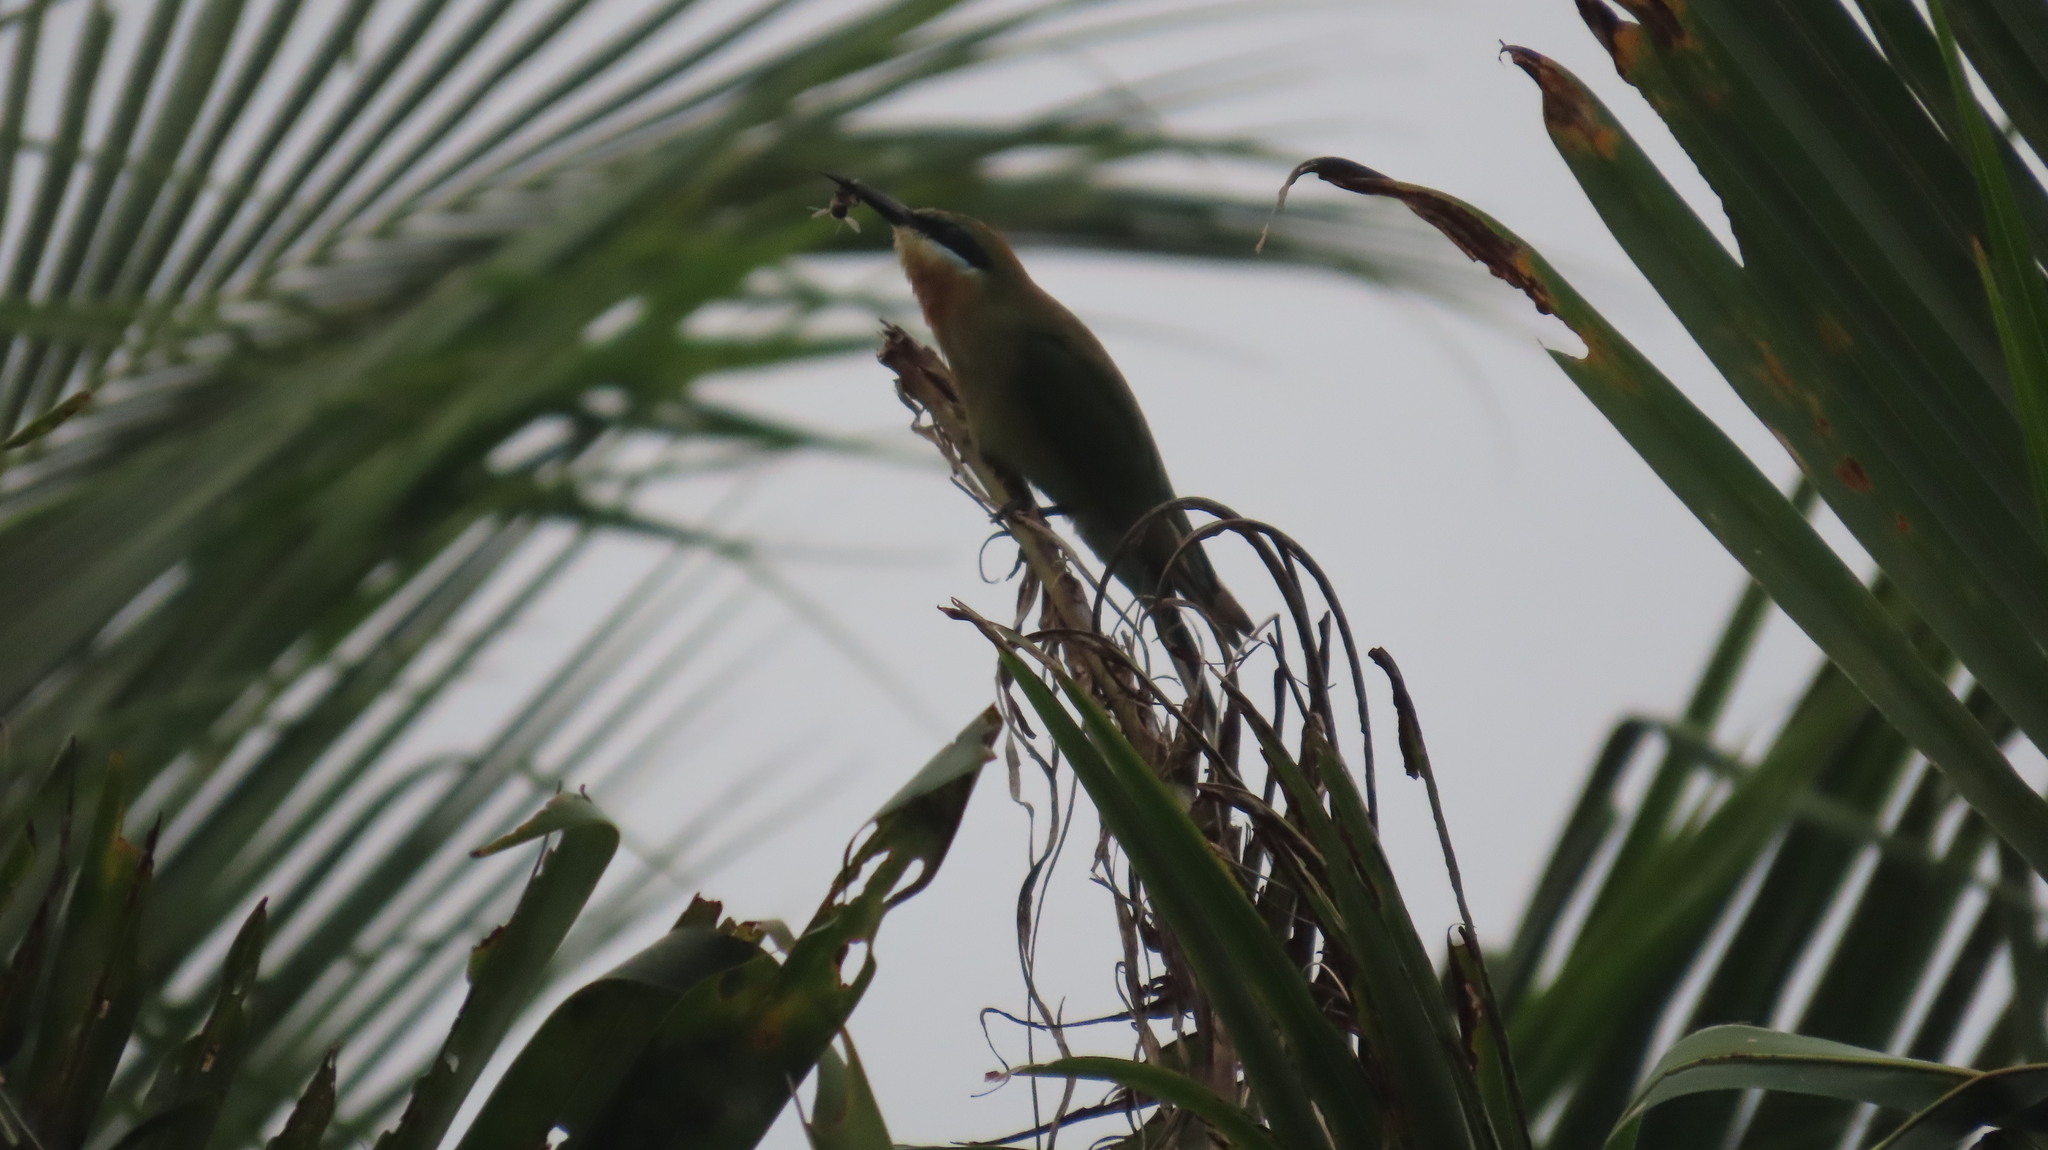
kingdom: Animalia
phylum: Chordata
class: Aves
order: Coraciiformes
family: Meropidae
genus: Merops
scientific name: Merops philippinus
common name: Blue-tailed bee-eater
